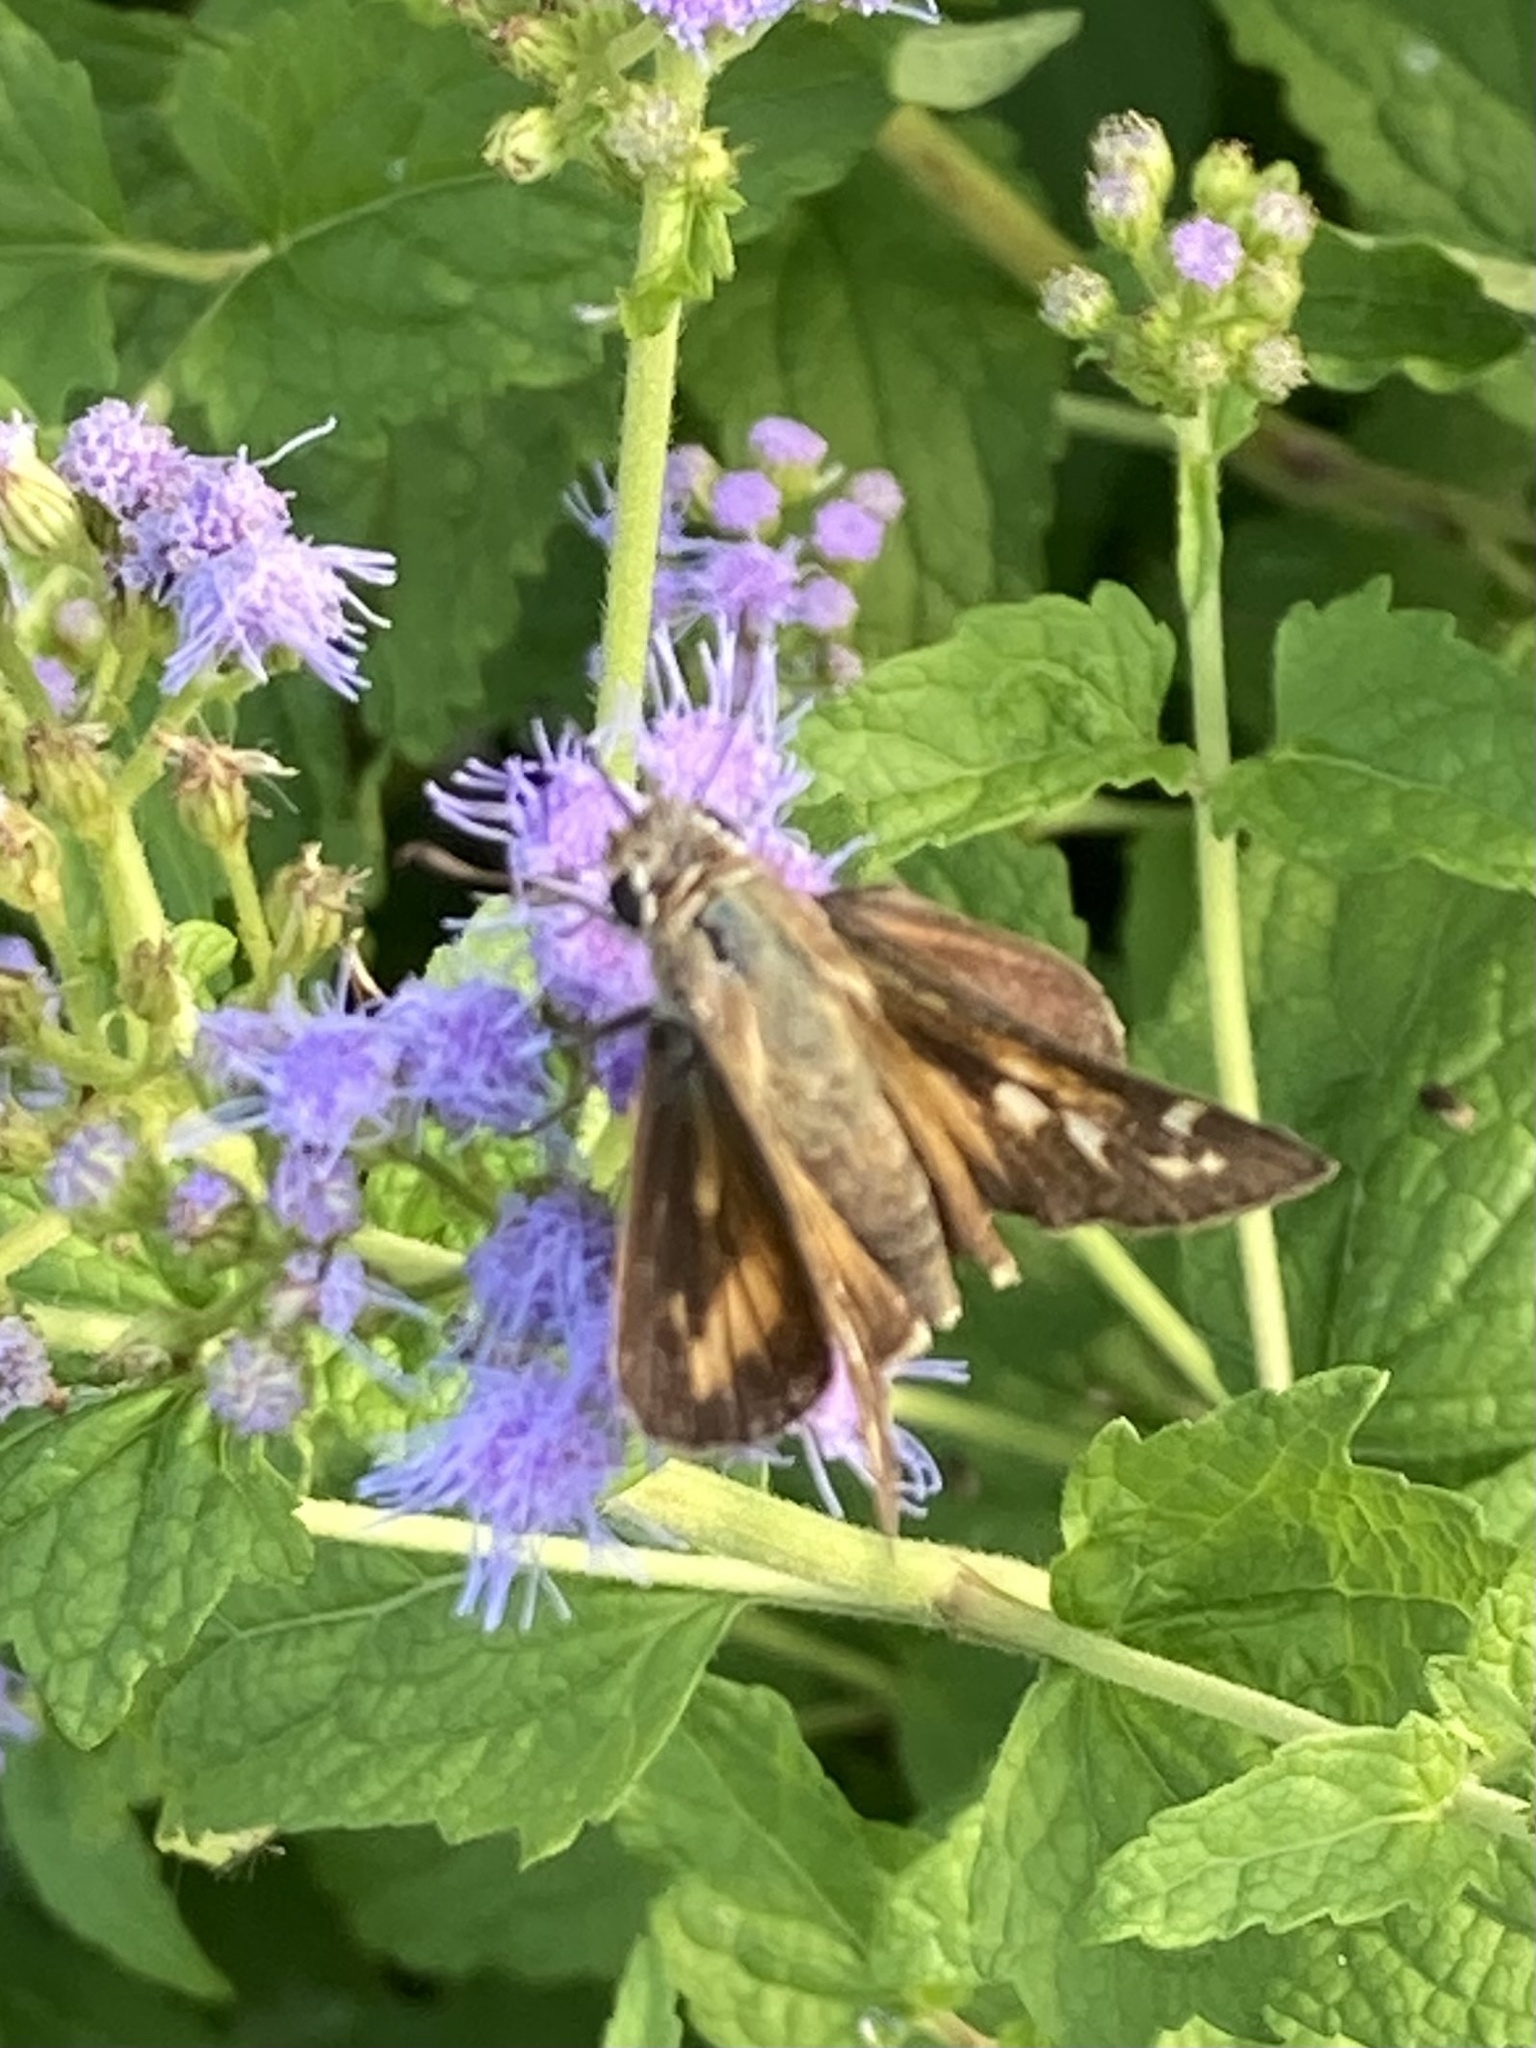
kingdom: Animalia
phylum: Arthropoda
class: Insecta
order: Lepidoptera
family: Hesperiidae
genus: Atalopedes
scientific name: Atalopedes
